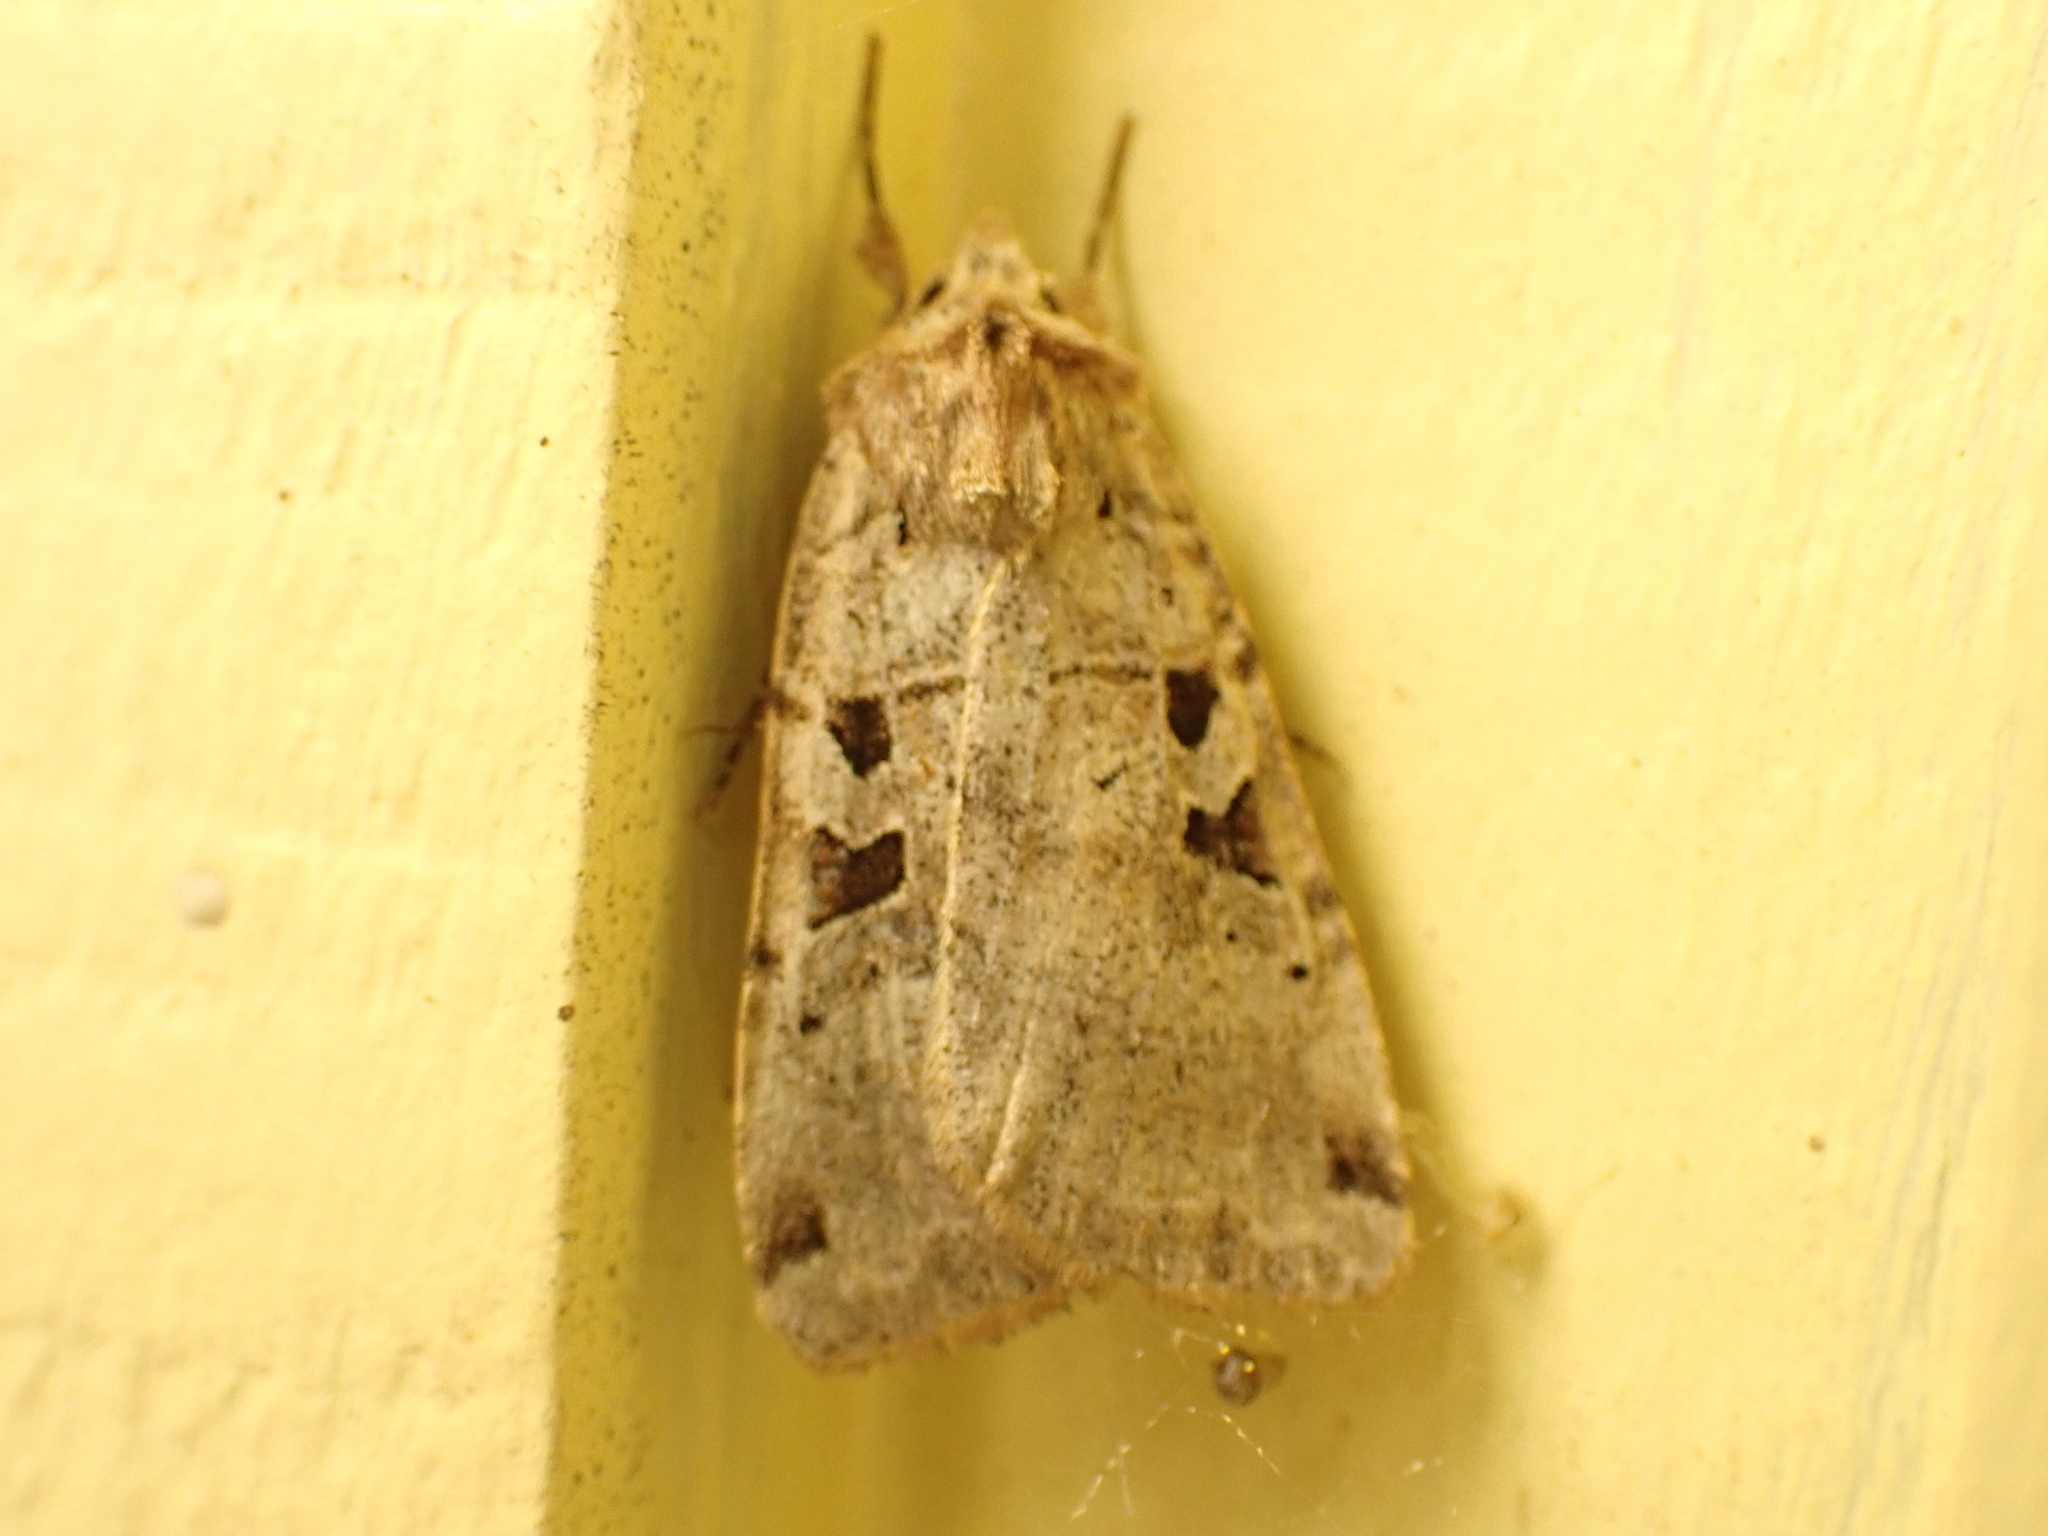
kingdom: Animalia
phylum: Arthropoda
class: Insecta
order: Lepidoptera
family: Noctuidae
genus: Xestia
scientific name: Xestia normaniana
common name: Norman's dart moth
